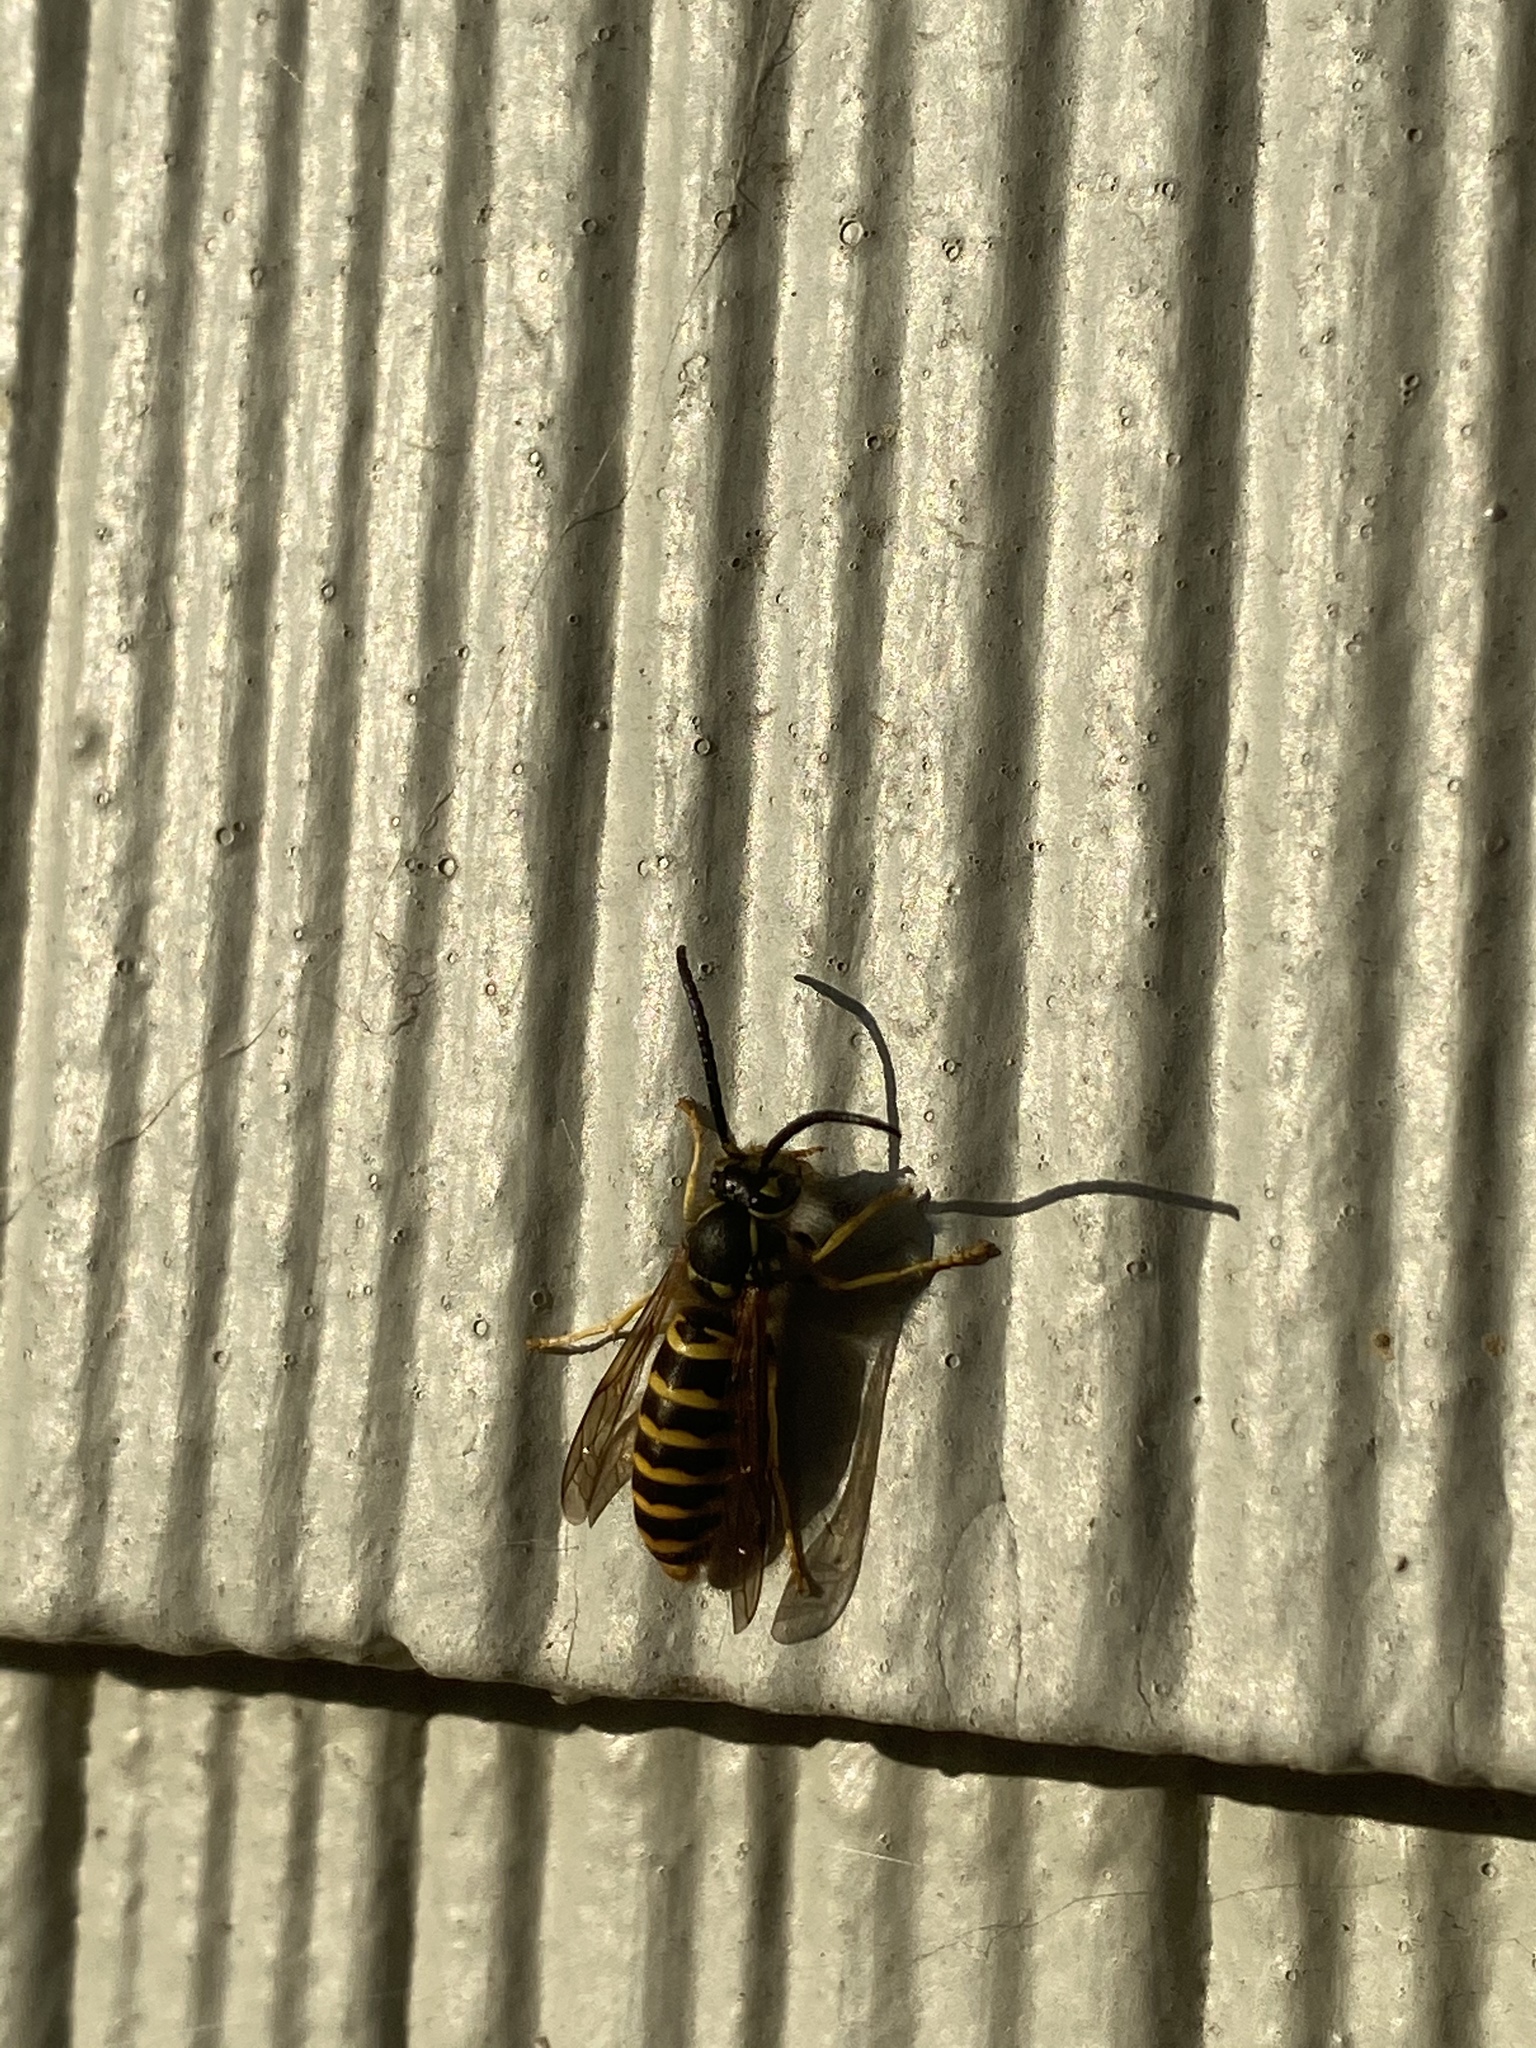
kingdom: Animalia
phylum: Arthropoda
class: Insecta
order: Hymenoptera
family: Vespidae
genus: Vespula
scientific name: Vespula maculifrons
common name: Eastern yellowjacket
